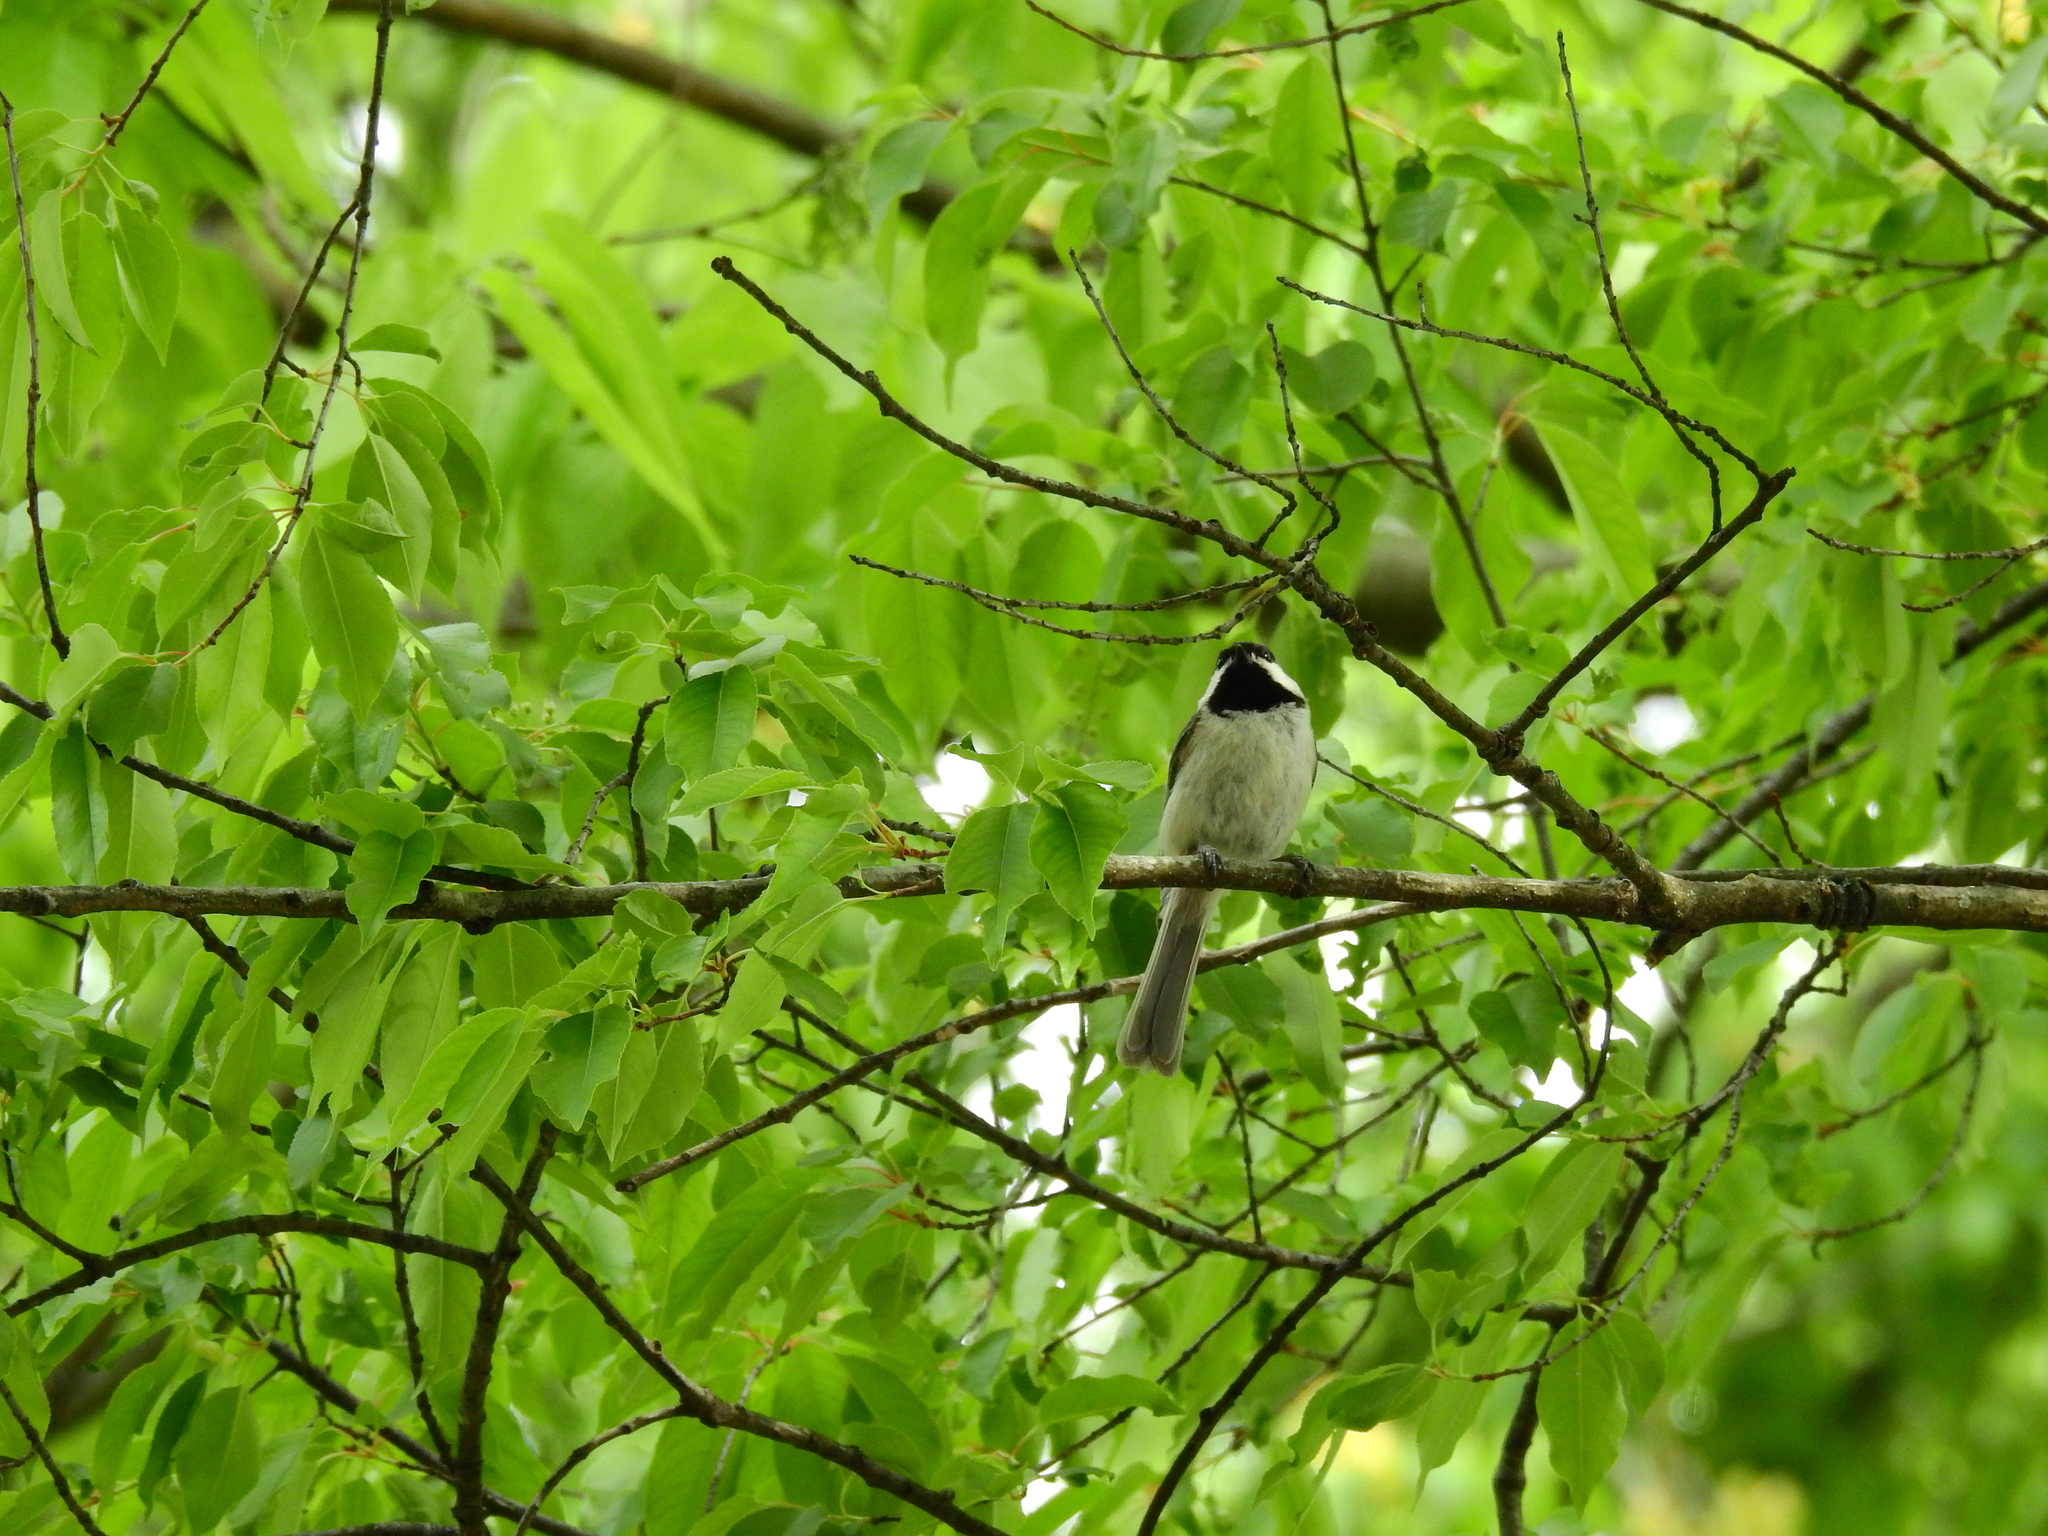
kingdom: Animalia
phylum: Chordata
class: Aves
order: Passeriformes
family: Paridae
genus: Poecile
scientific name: Poecile carolinensis
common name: Carolina chickadee
